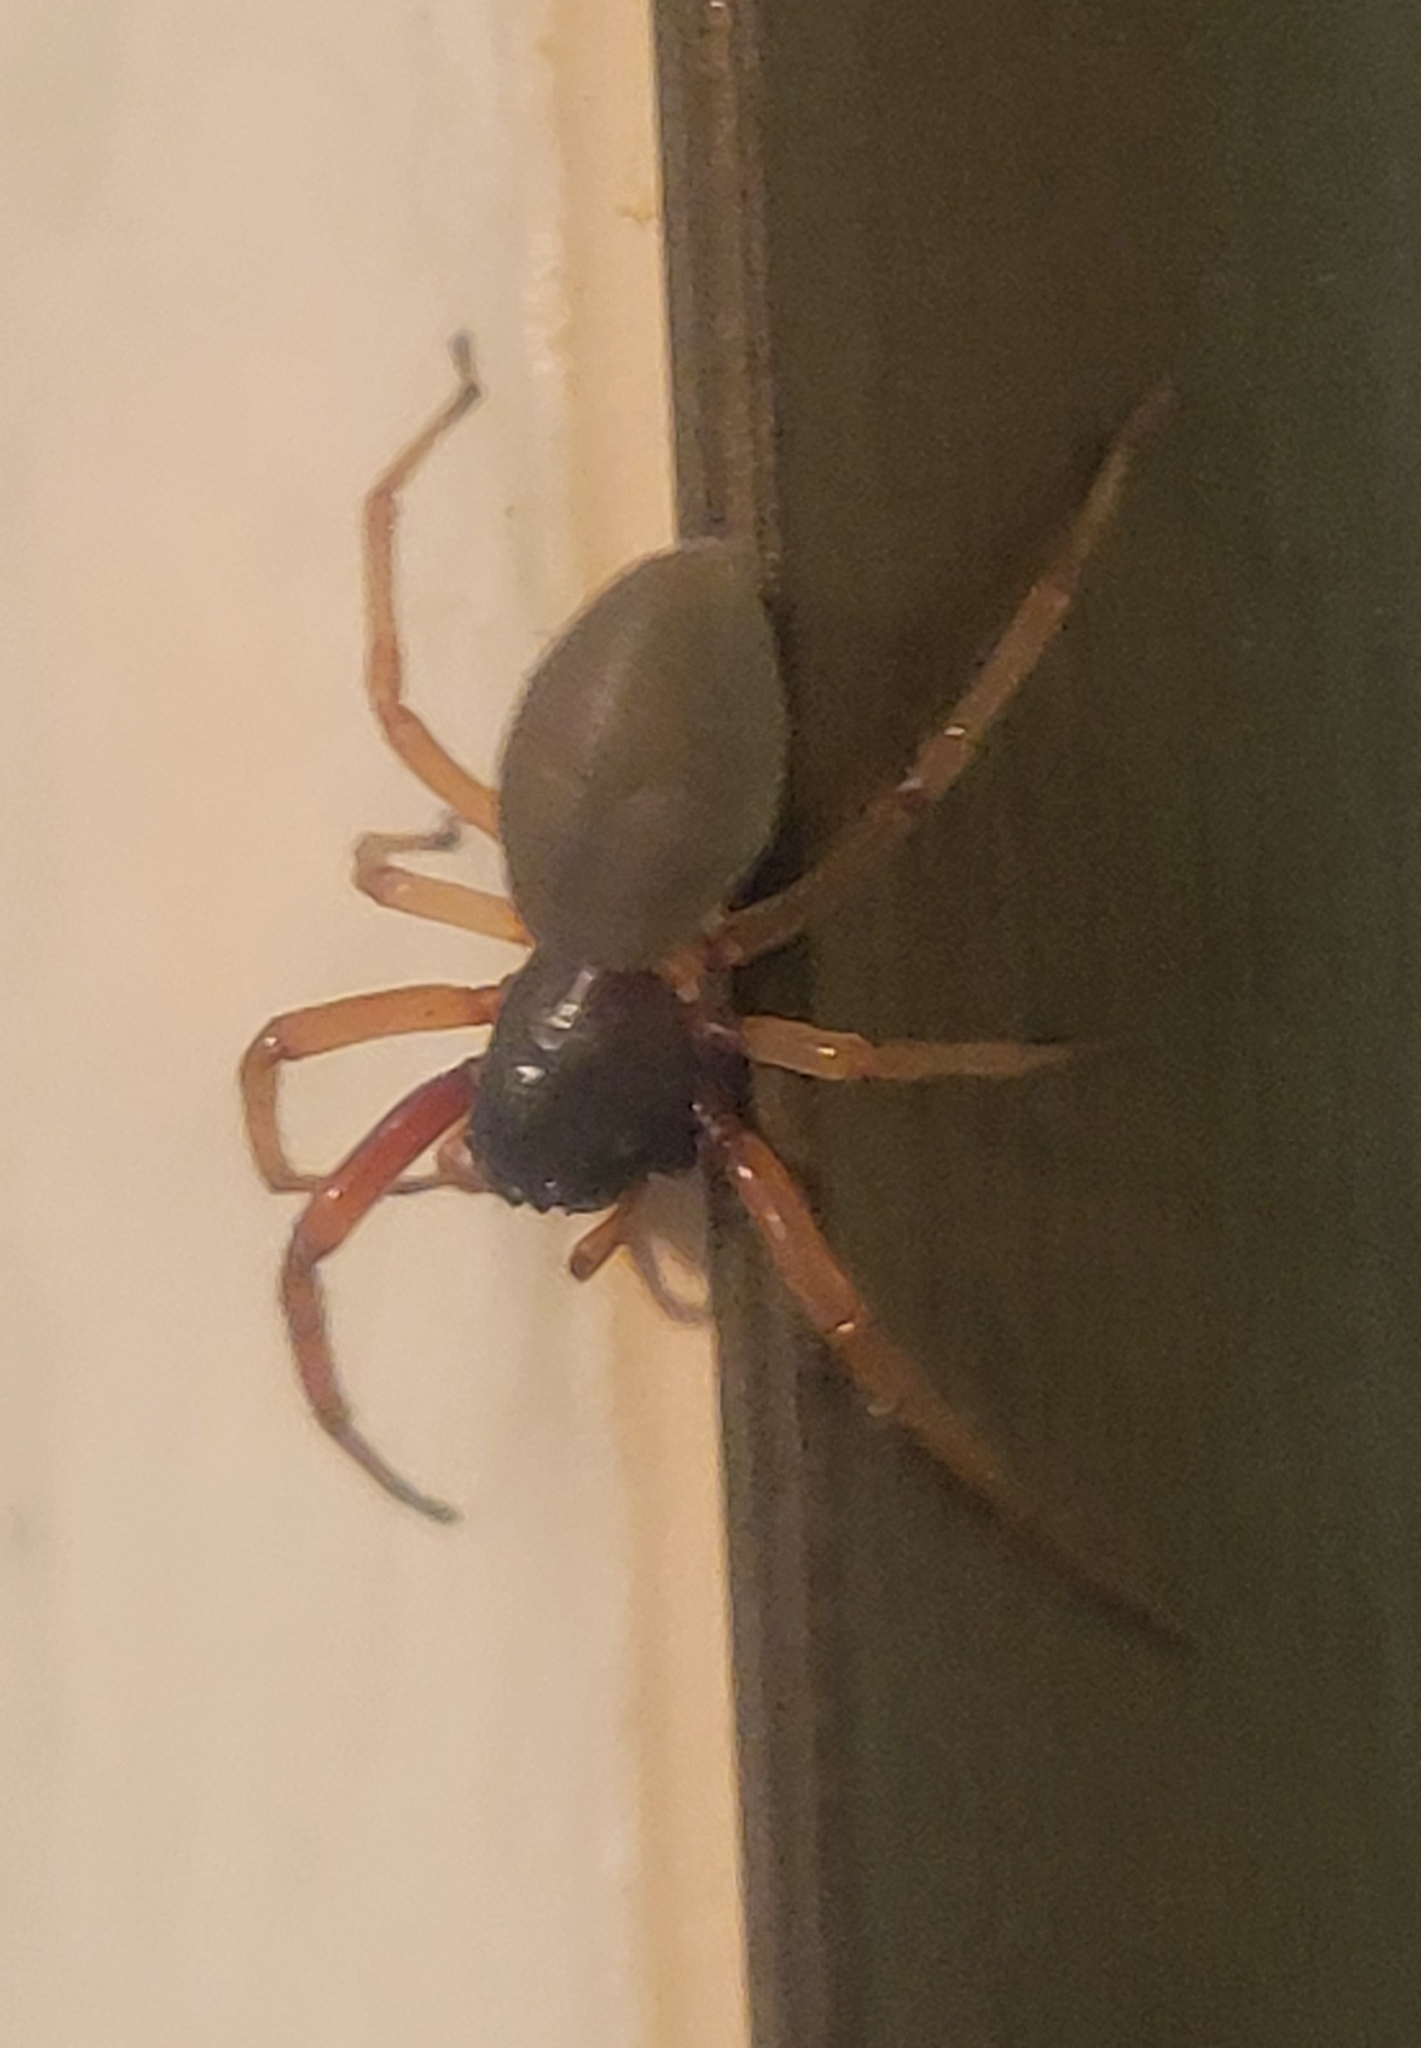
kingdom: Animalia
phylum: Arthropoda
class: Arachnida
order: Araneae
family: Trachelidae
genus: Trachelas
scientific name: Trachelas tranquillus
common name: Broad-faced sac spider
